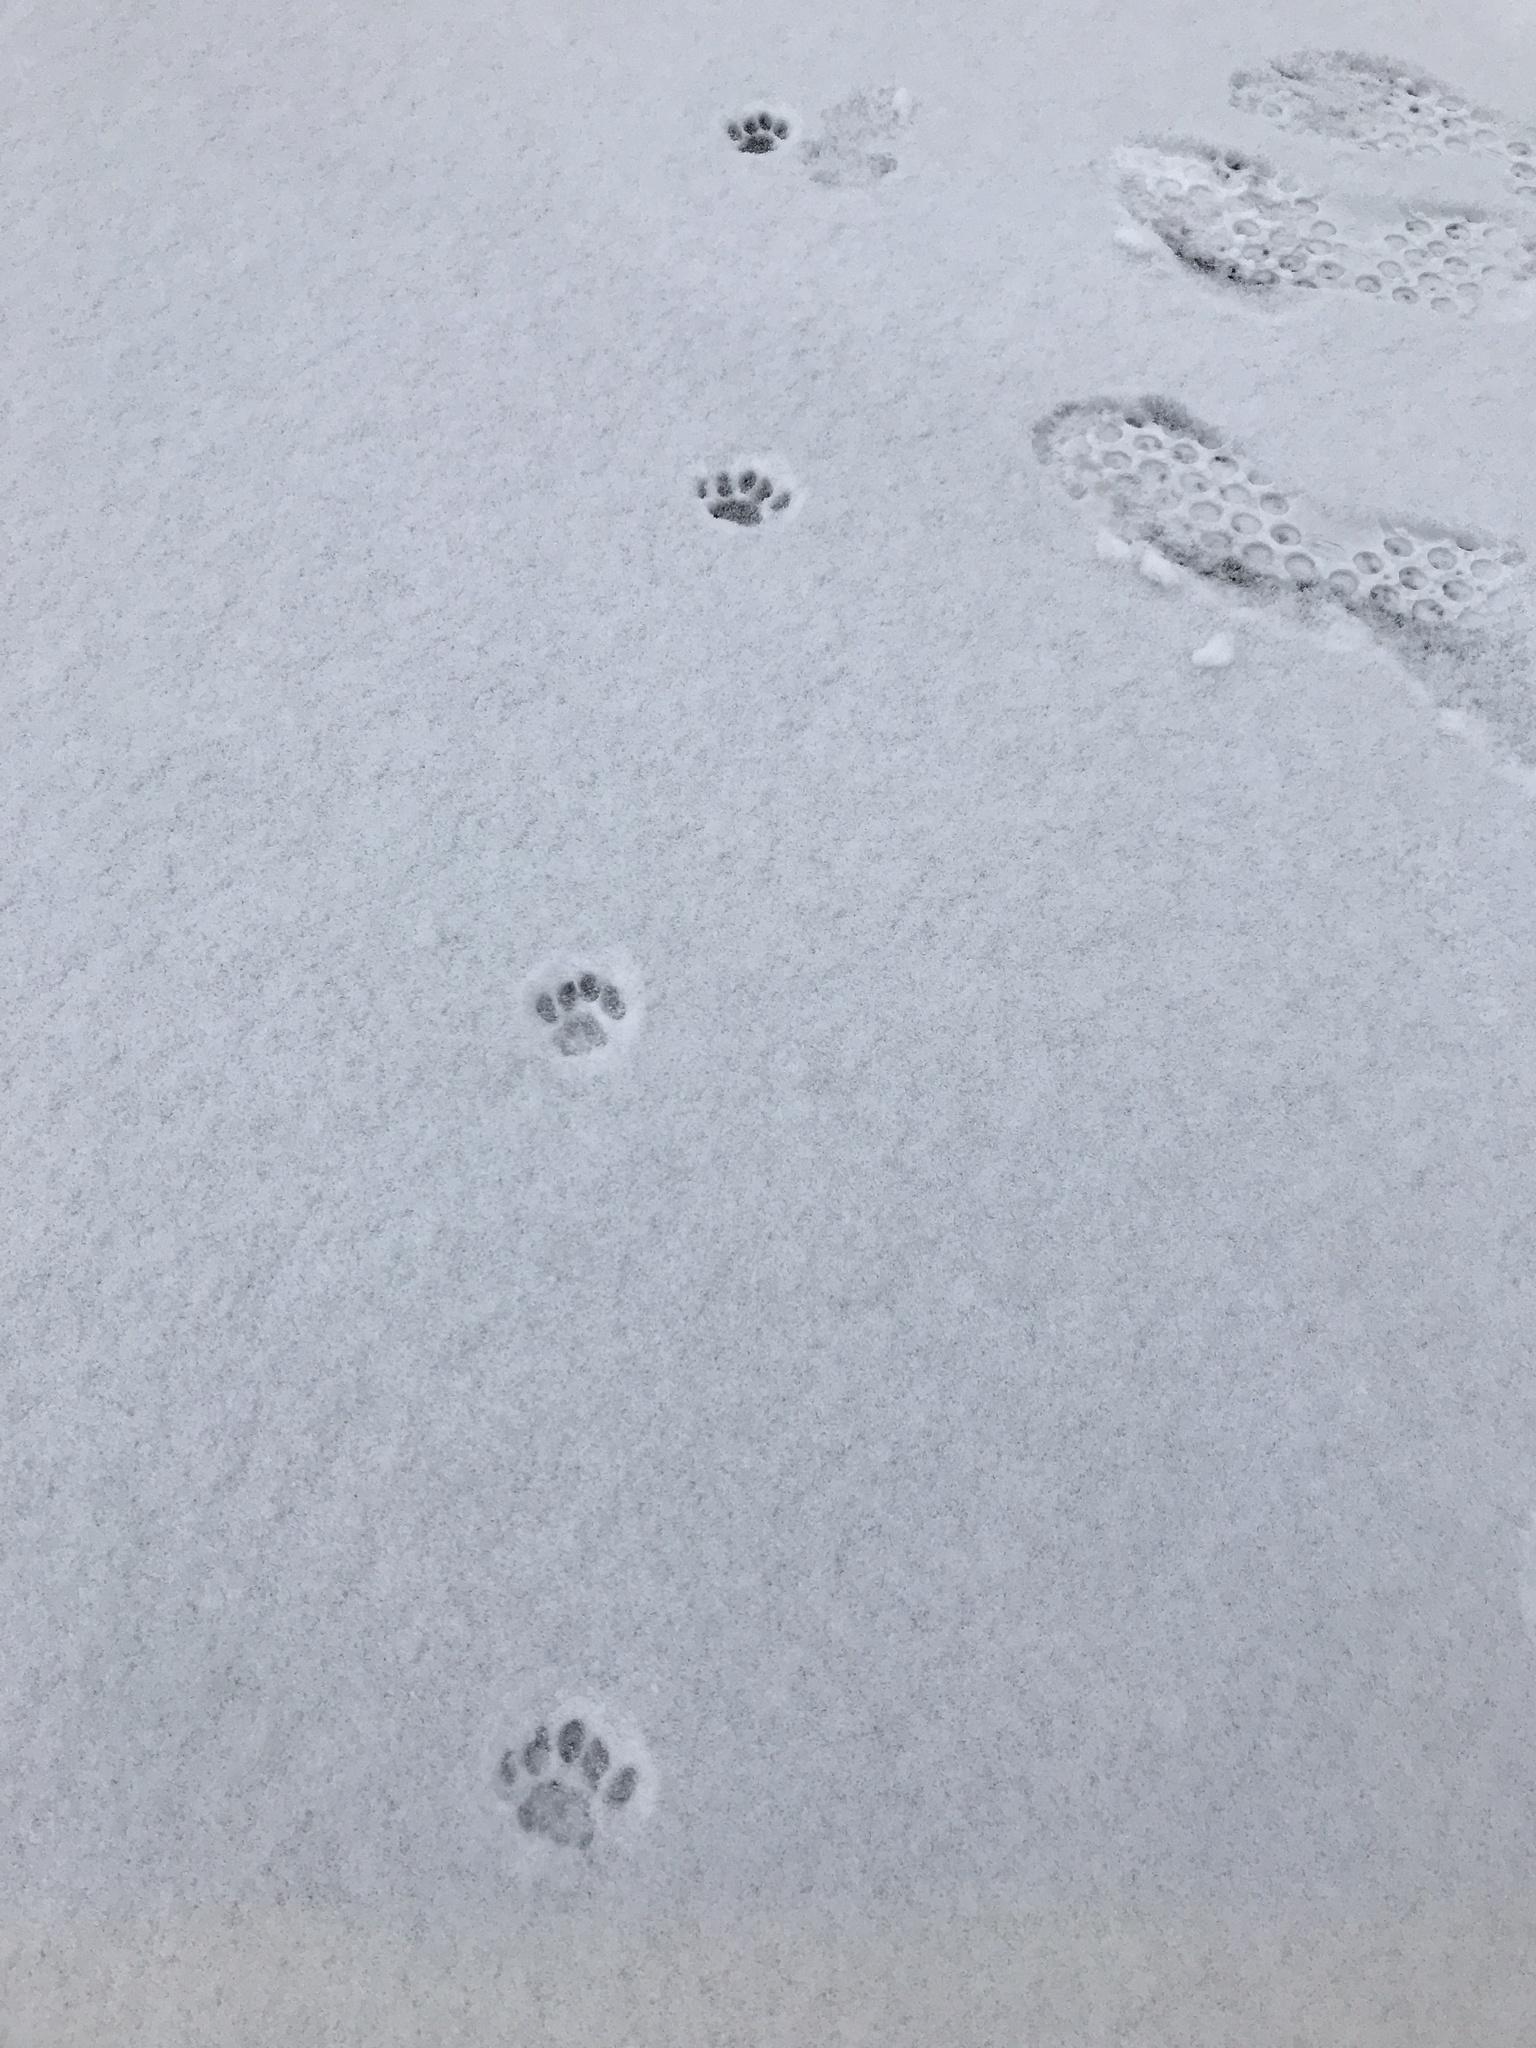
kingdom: Animalia
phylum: Chordata
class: Mammalia
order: Carnivora
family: Felidae
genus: Felis
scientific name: Felis catus
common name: Domestic cat
